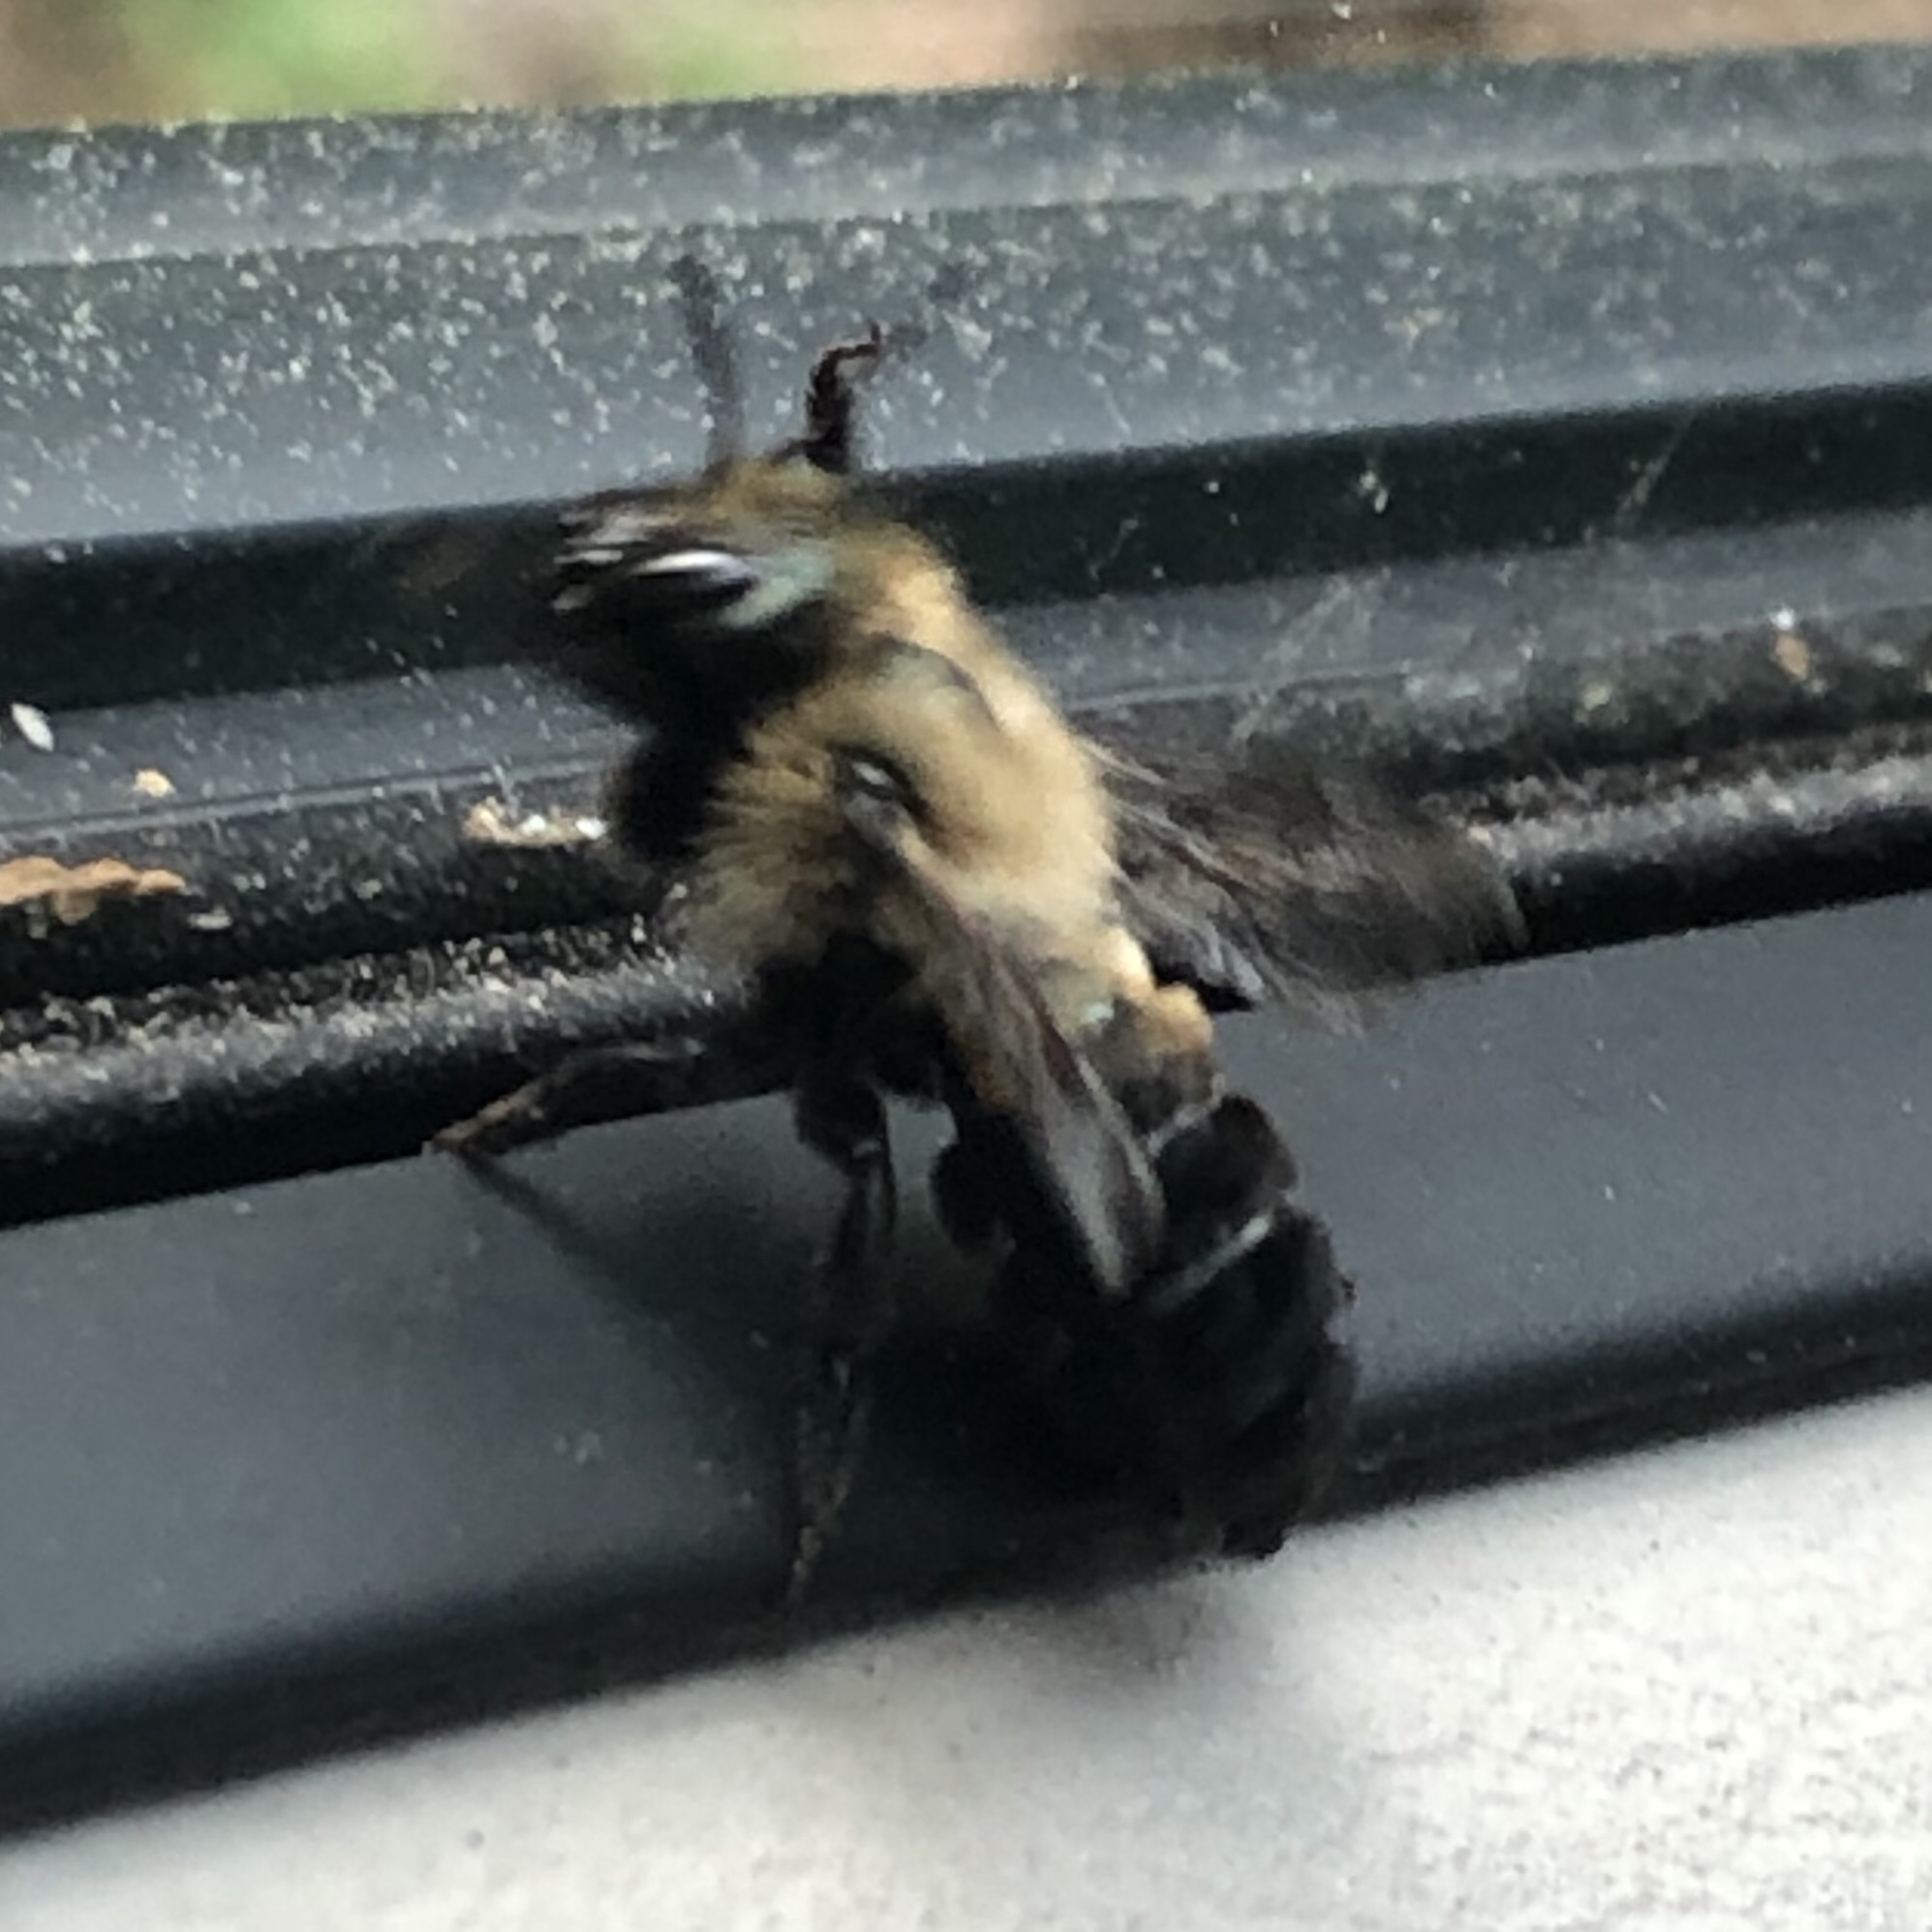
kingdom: Animalia
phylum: Arthropoda
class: Insecta
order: Hymenoptera
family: Megachilidae
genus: Osmia
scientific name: Osmia bucephala
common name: Bufflehead mason bee
